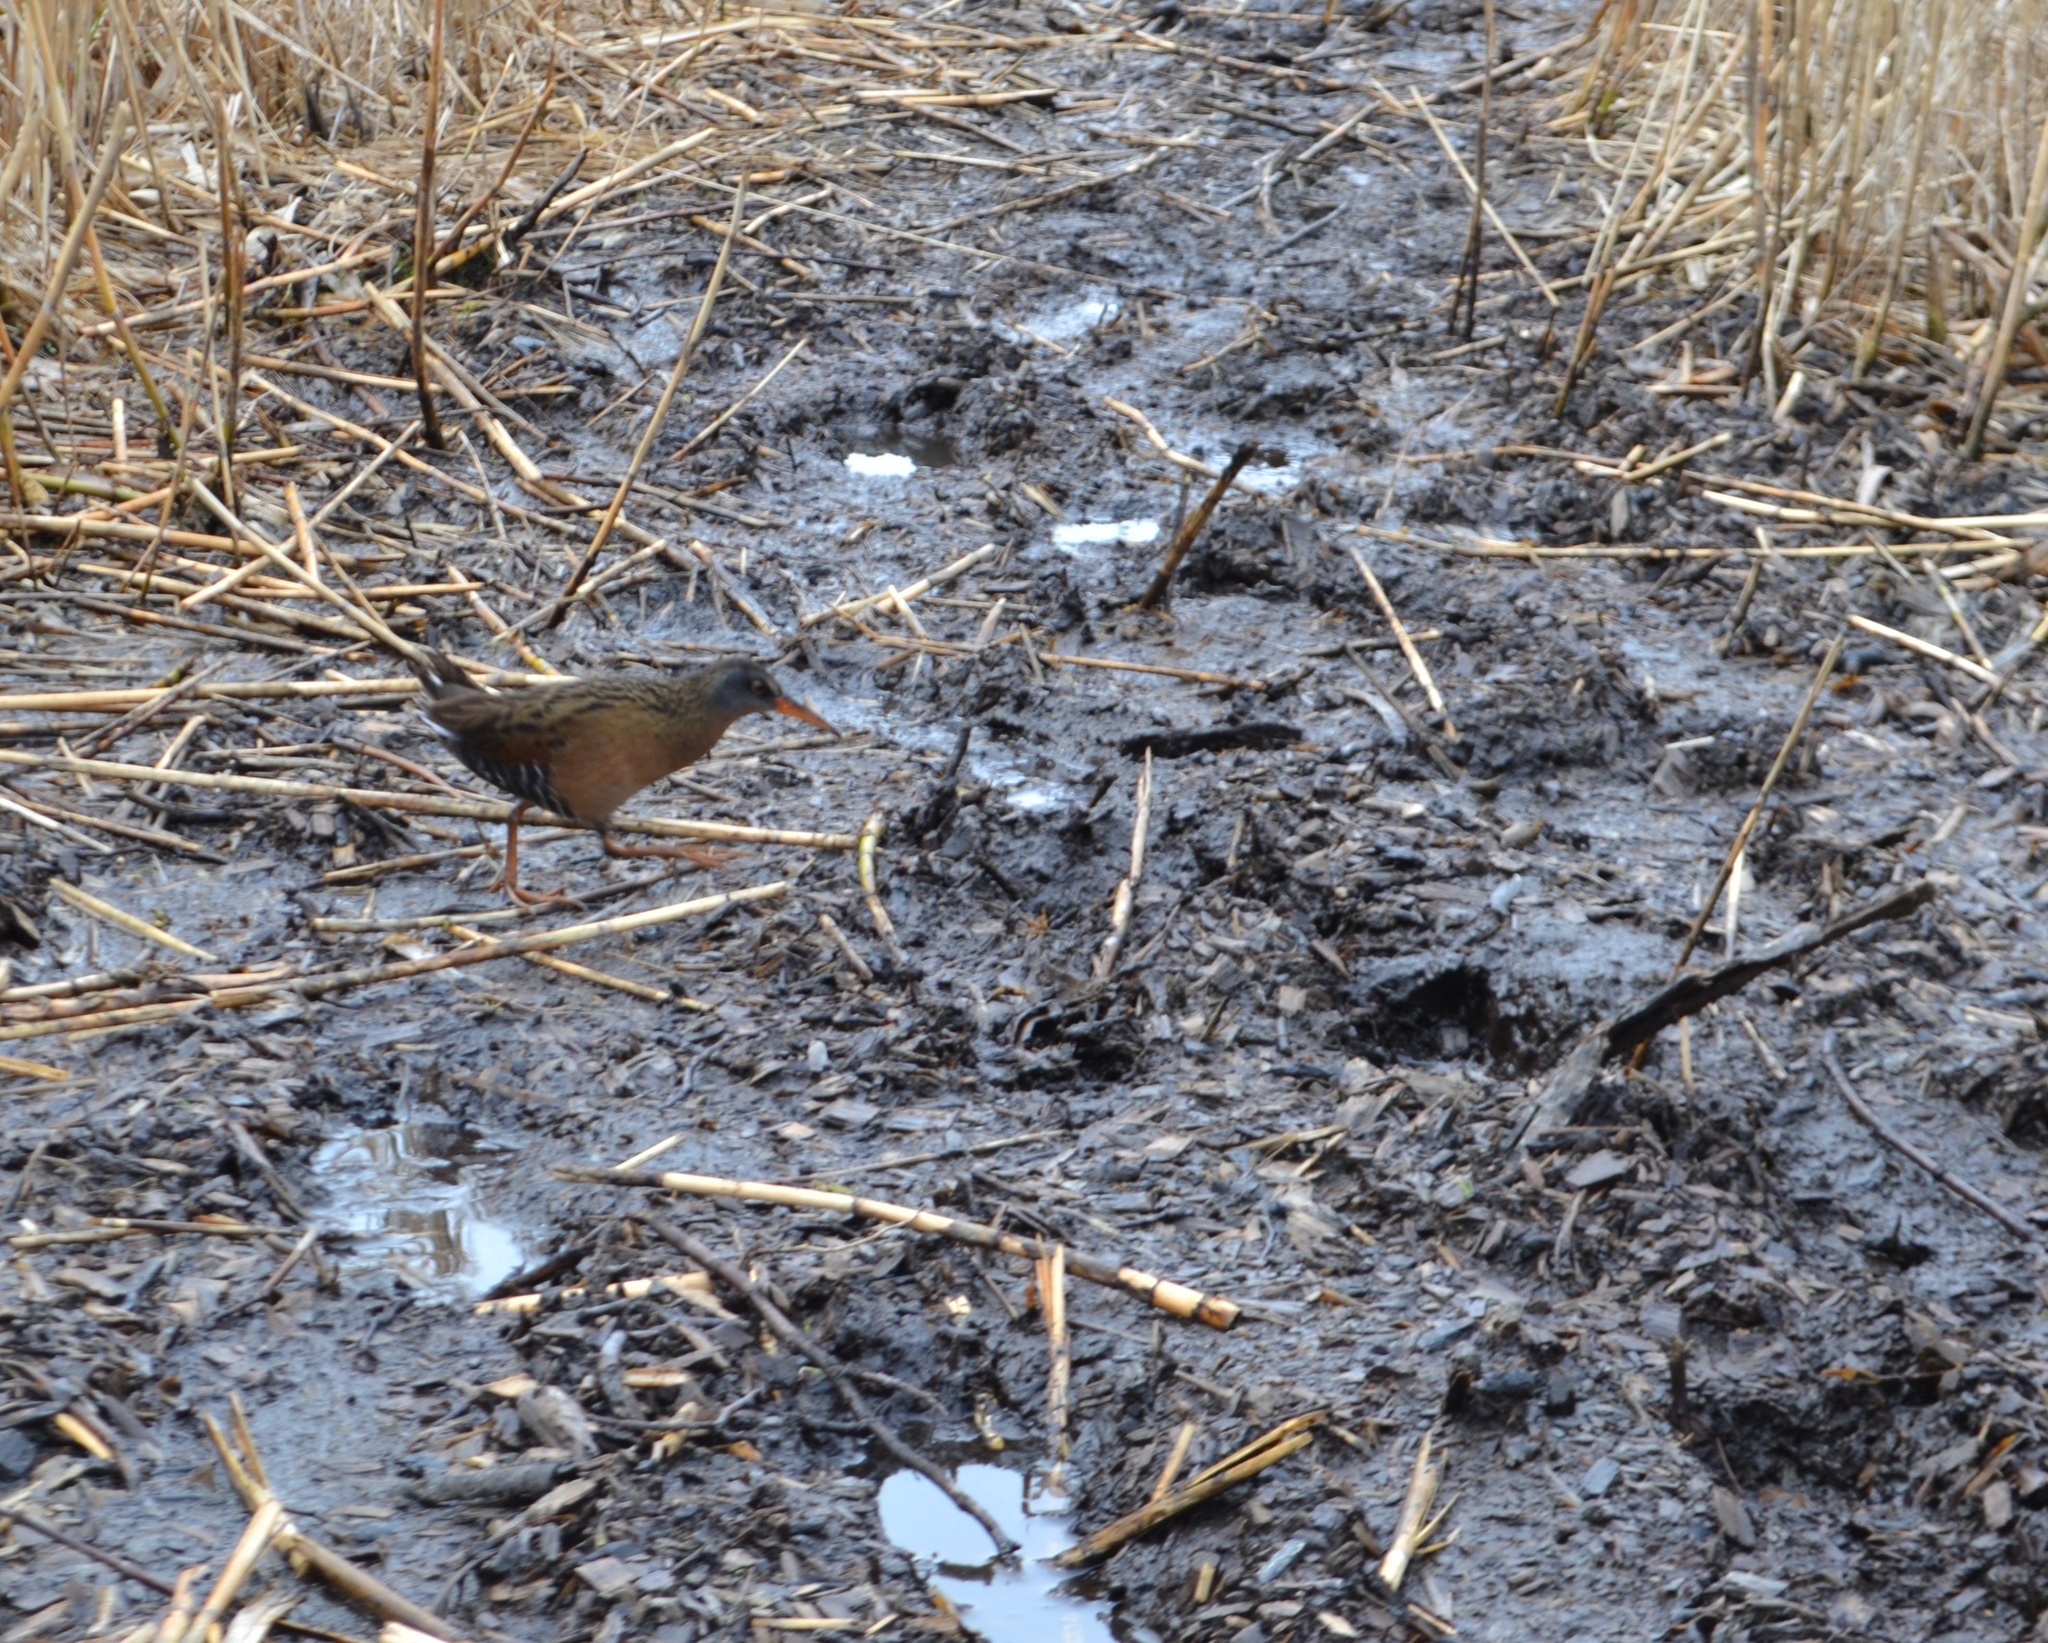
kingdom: Animalia
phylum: Chordata
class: Aves
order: Gruiformes
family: Rallidae
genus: Rallus
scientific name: Rallus limicola
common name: Virginia rail
